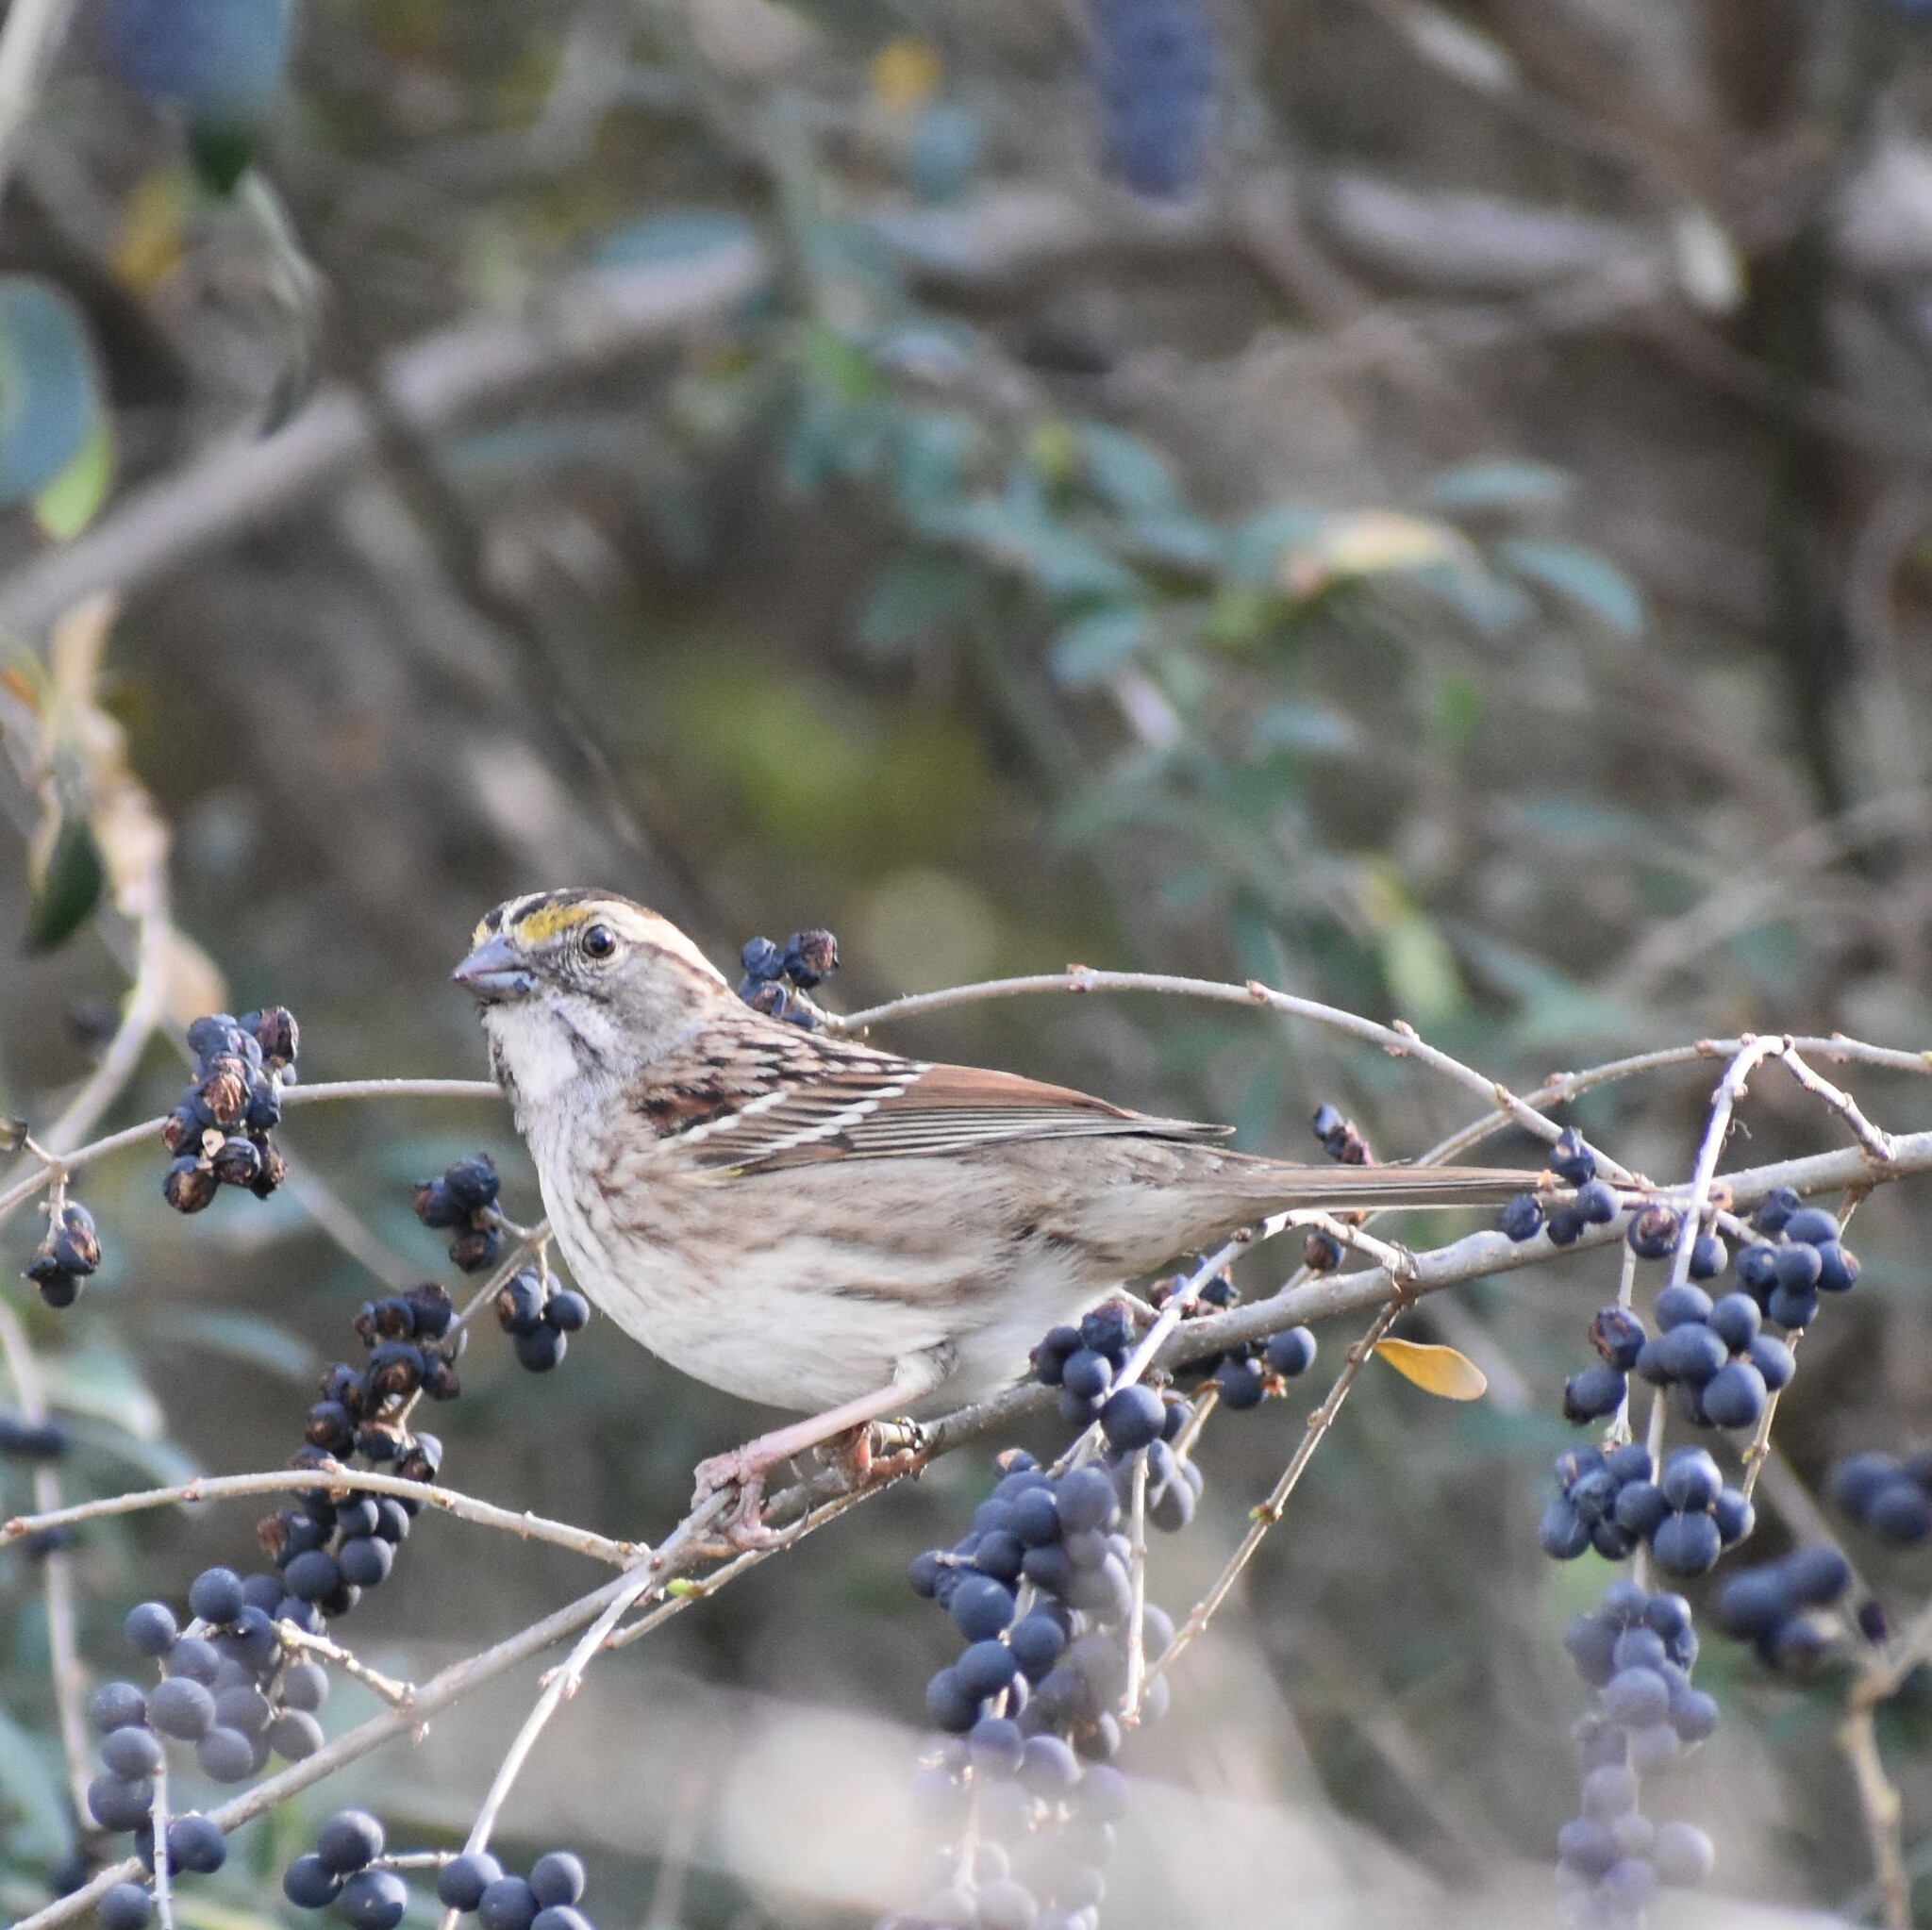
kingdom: Animalia
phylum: Chordata
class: Aves
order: Passeriformes
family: Passerellidae
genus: Zonotrichia
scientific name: Zonotrichia albicollis
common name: White-throated sparrow
